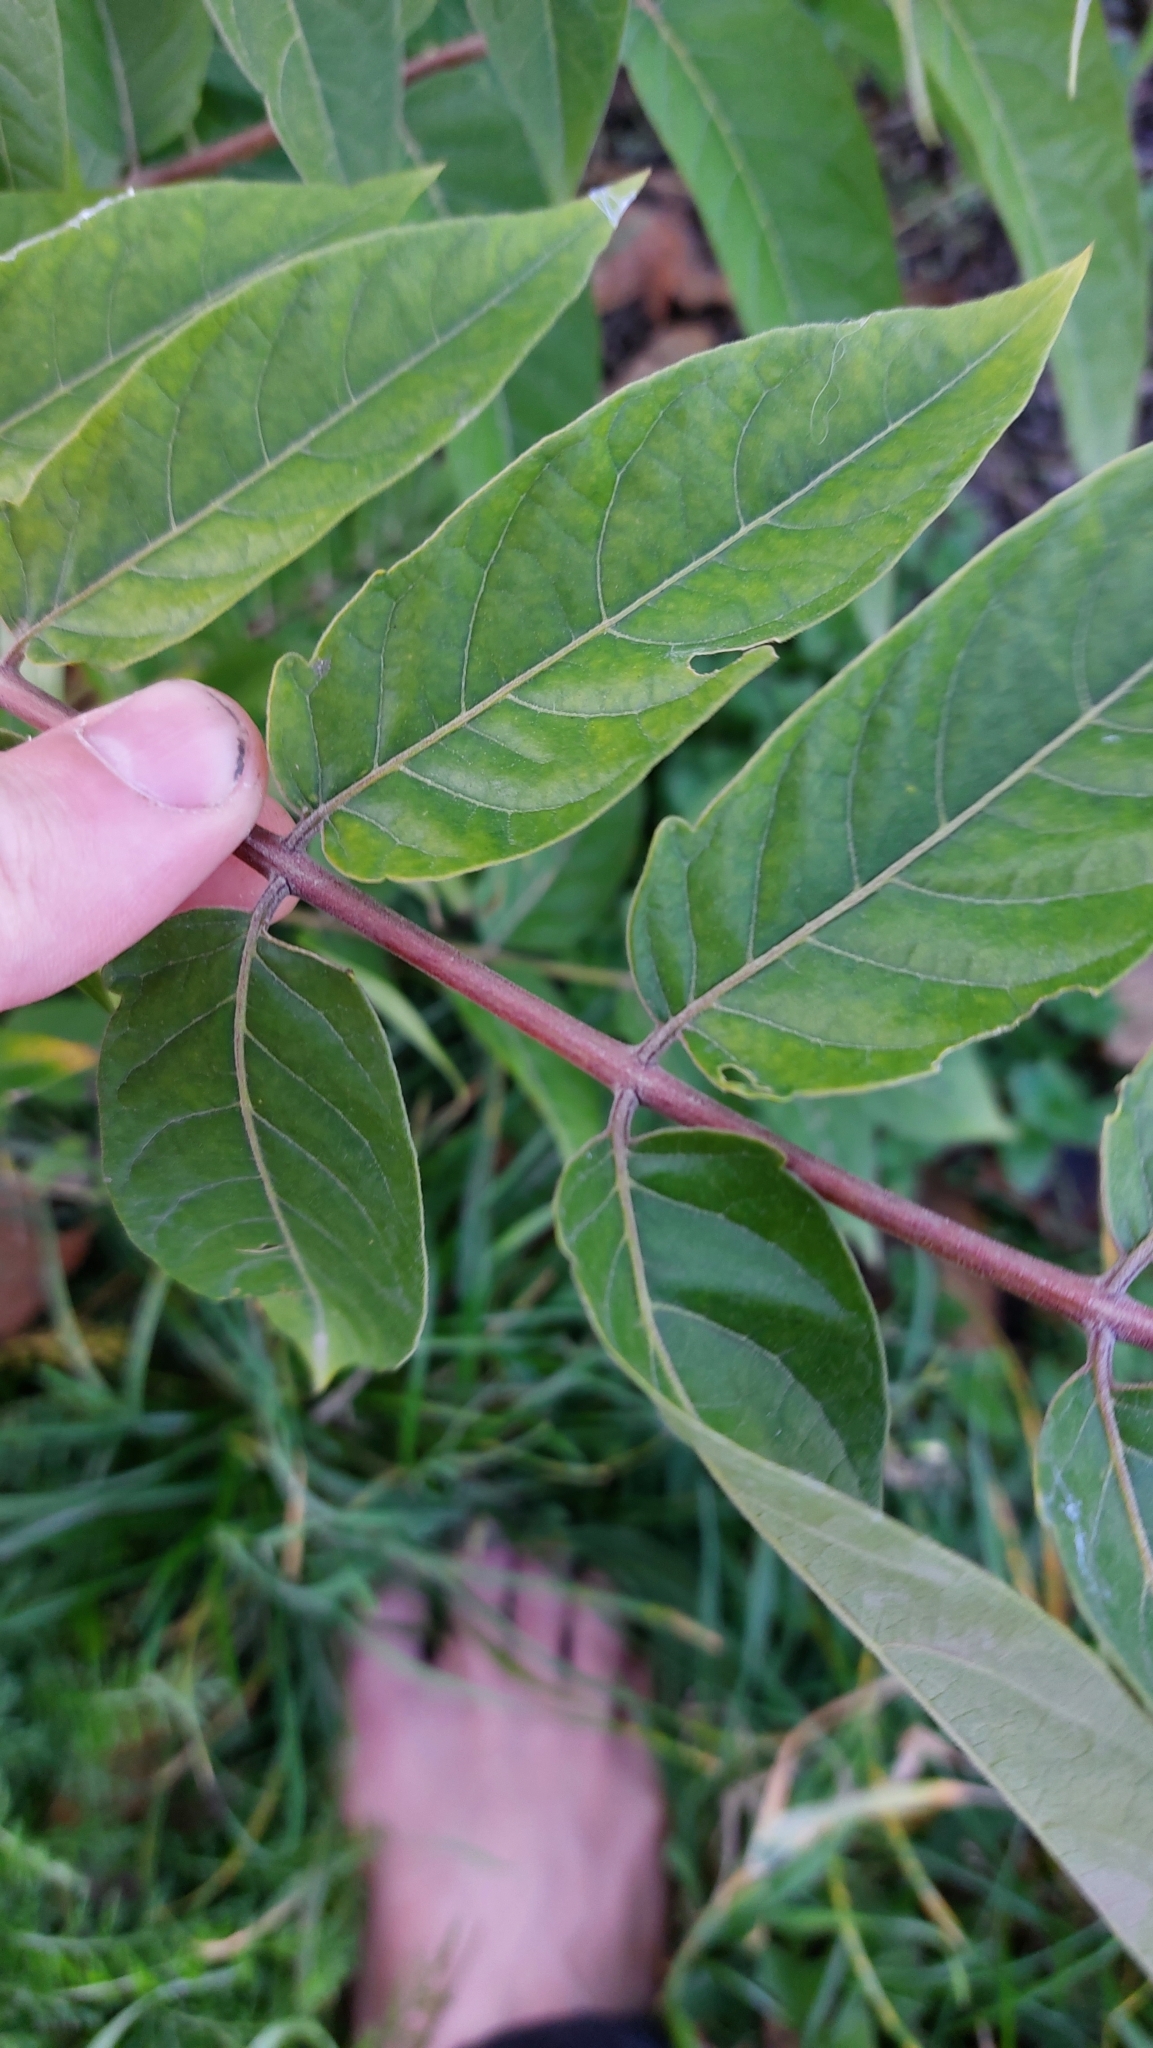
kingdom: Plantae
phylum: Tracheophyta
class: Magnoliopsida
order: Sapindales
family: Simaroubaceae
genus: Ailanthus
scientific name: Ailanthus altissima
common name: Tree-of-heaven
